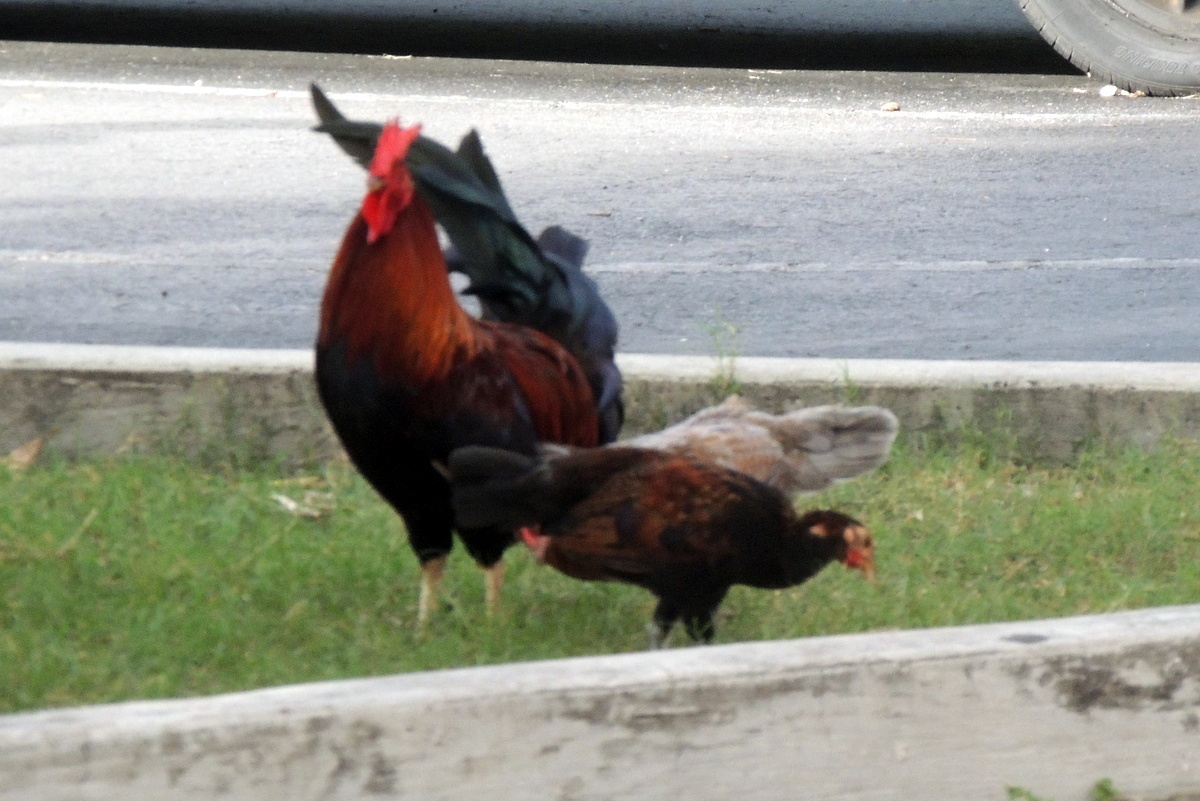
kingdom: Animalia
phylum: Chordata
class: Aves
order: Galliformes
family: Phasianidae
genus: Gallus
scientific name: Gallus gallus
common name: Red junglefowl
